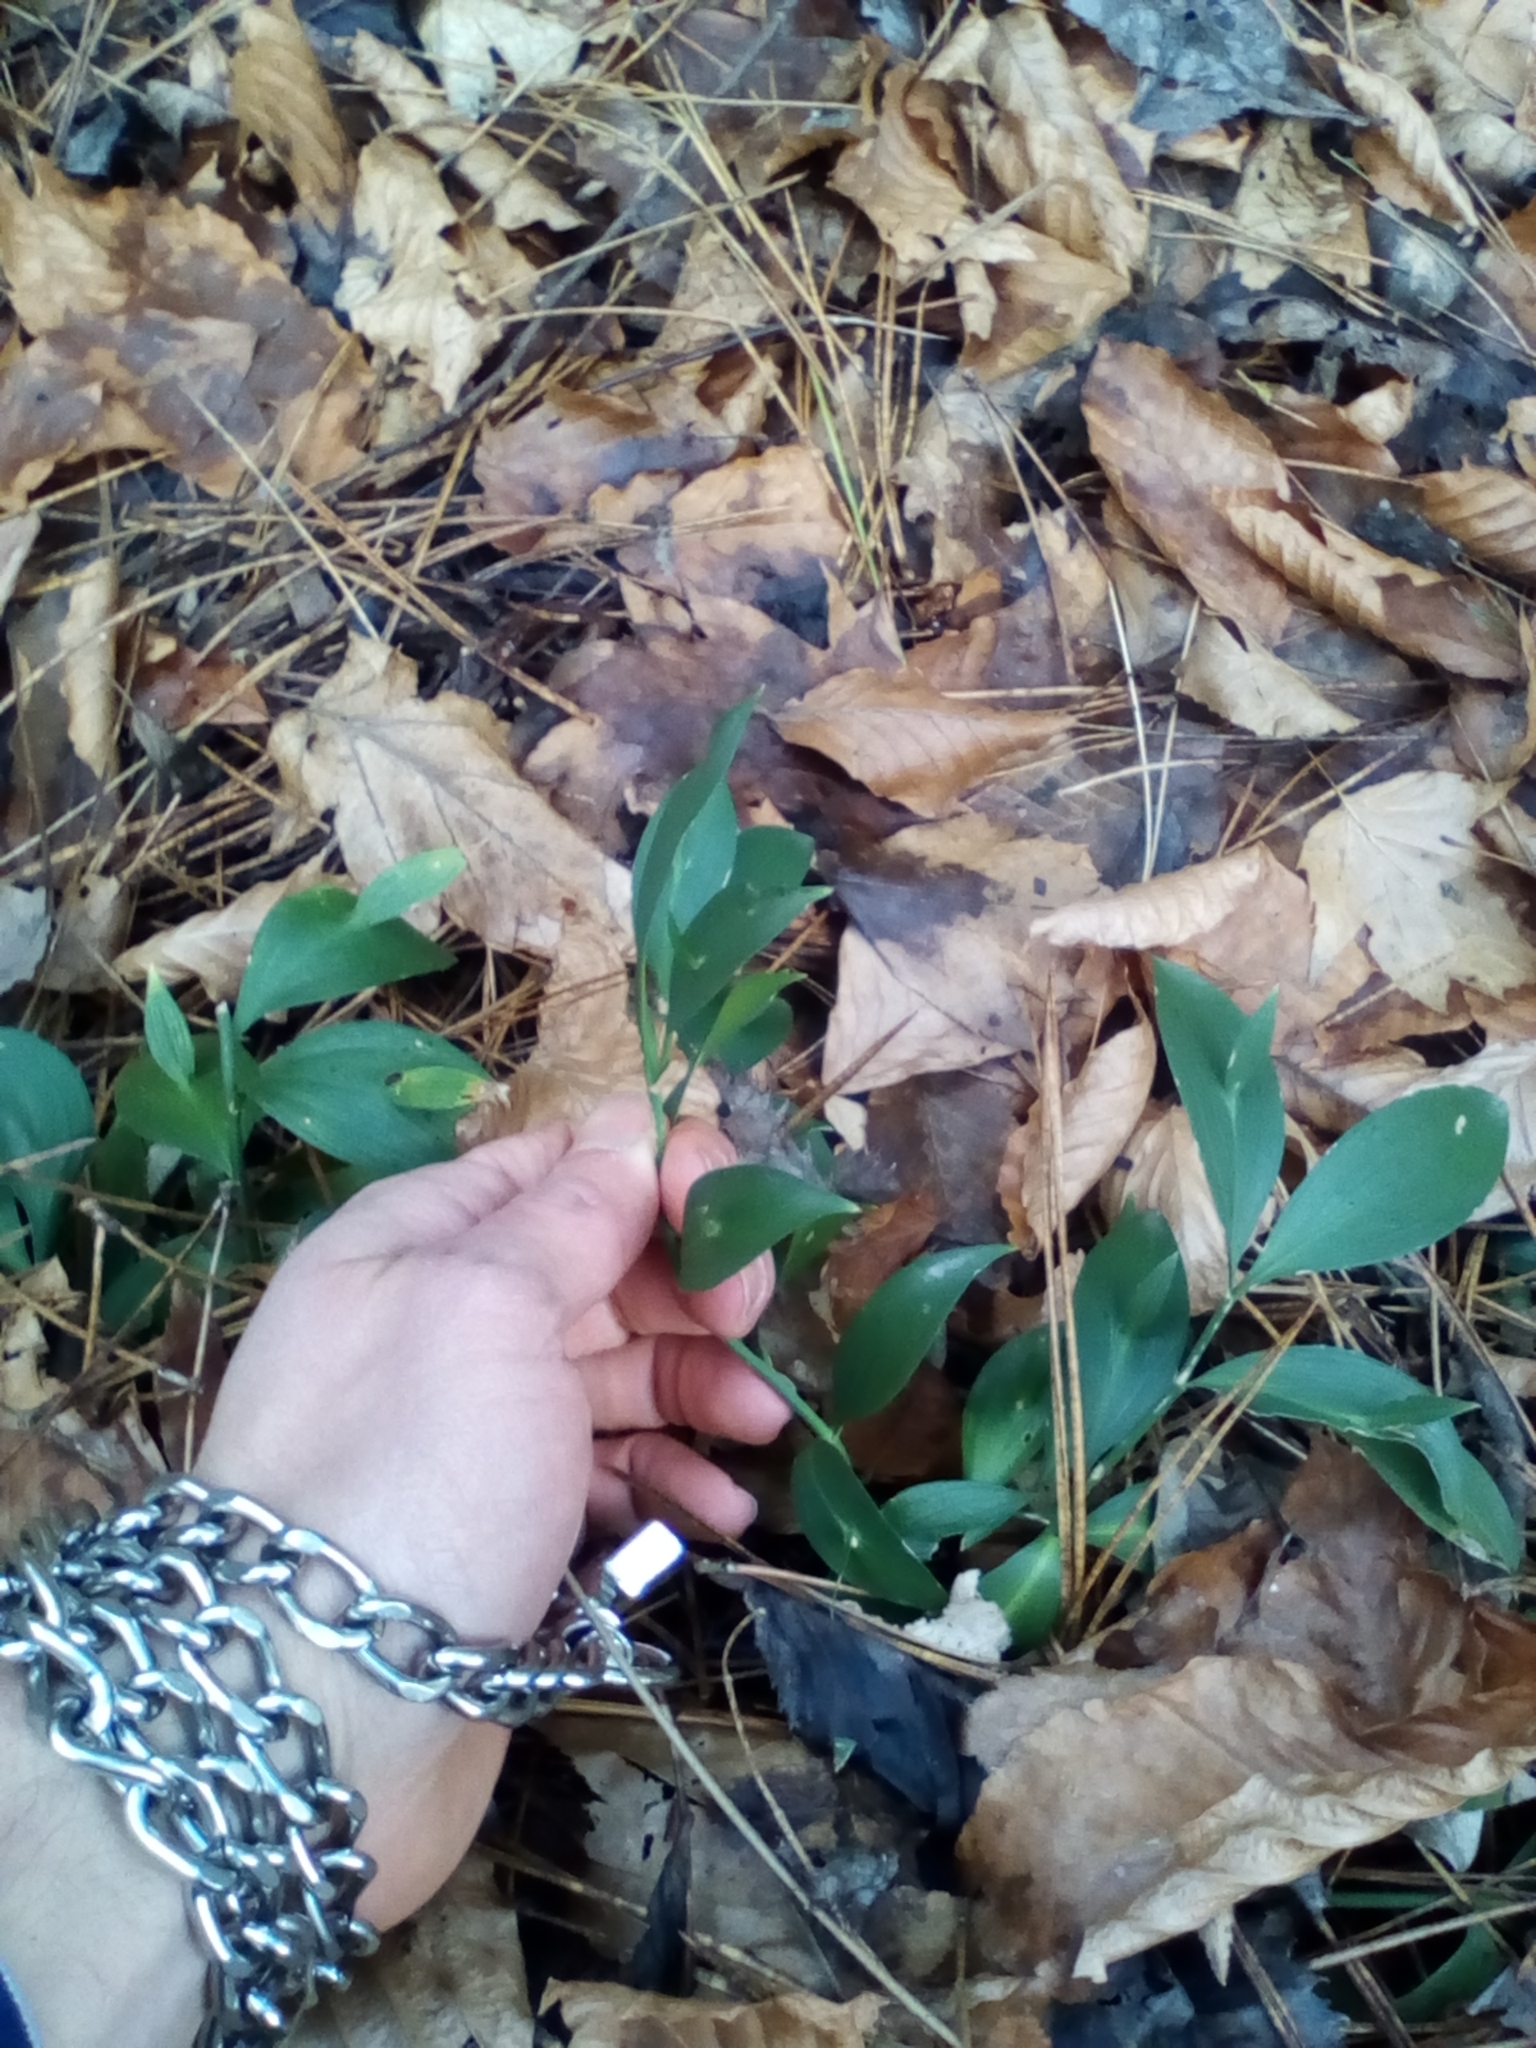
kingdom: Plantae
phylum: Tracheophyta
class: Liliopsida
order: Asparagales
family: Asparagaceae
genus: Ruscus
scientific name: Ruscus hypoglossum
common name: Spineless butcher's-broom
